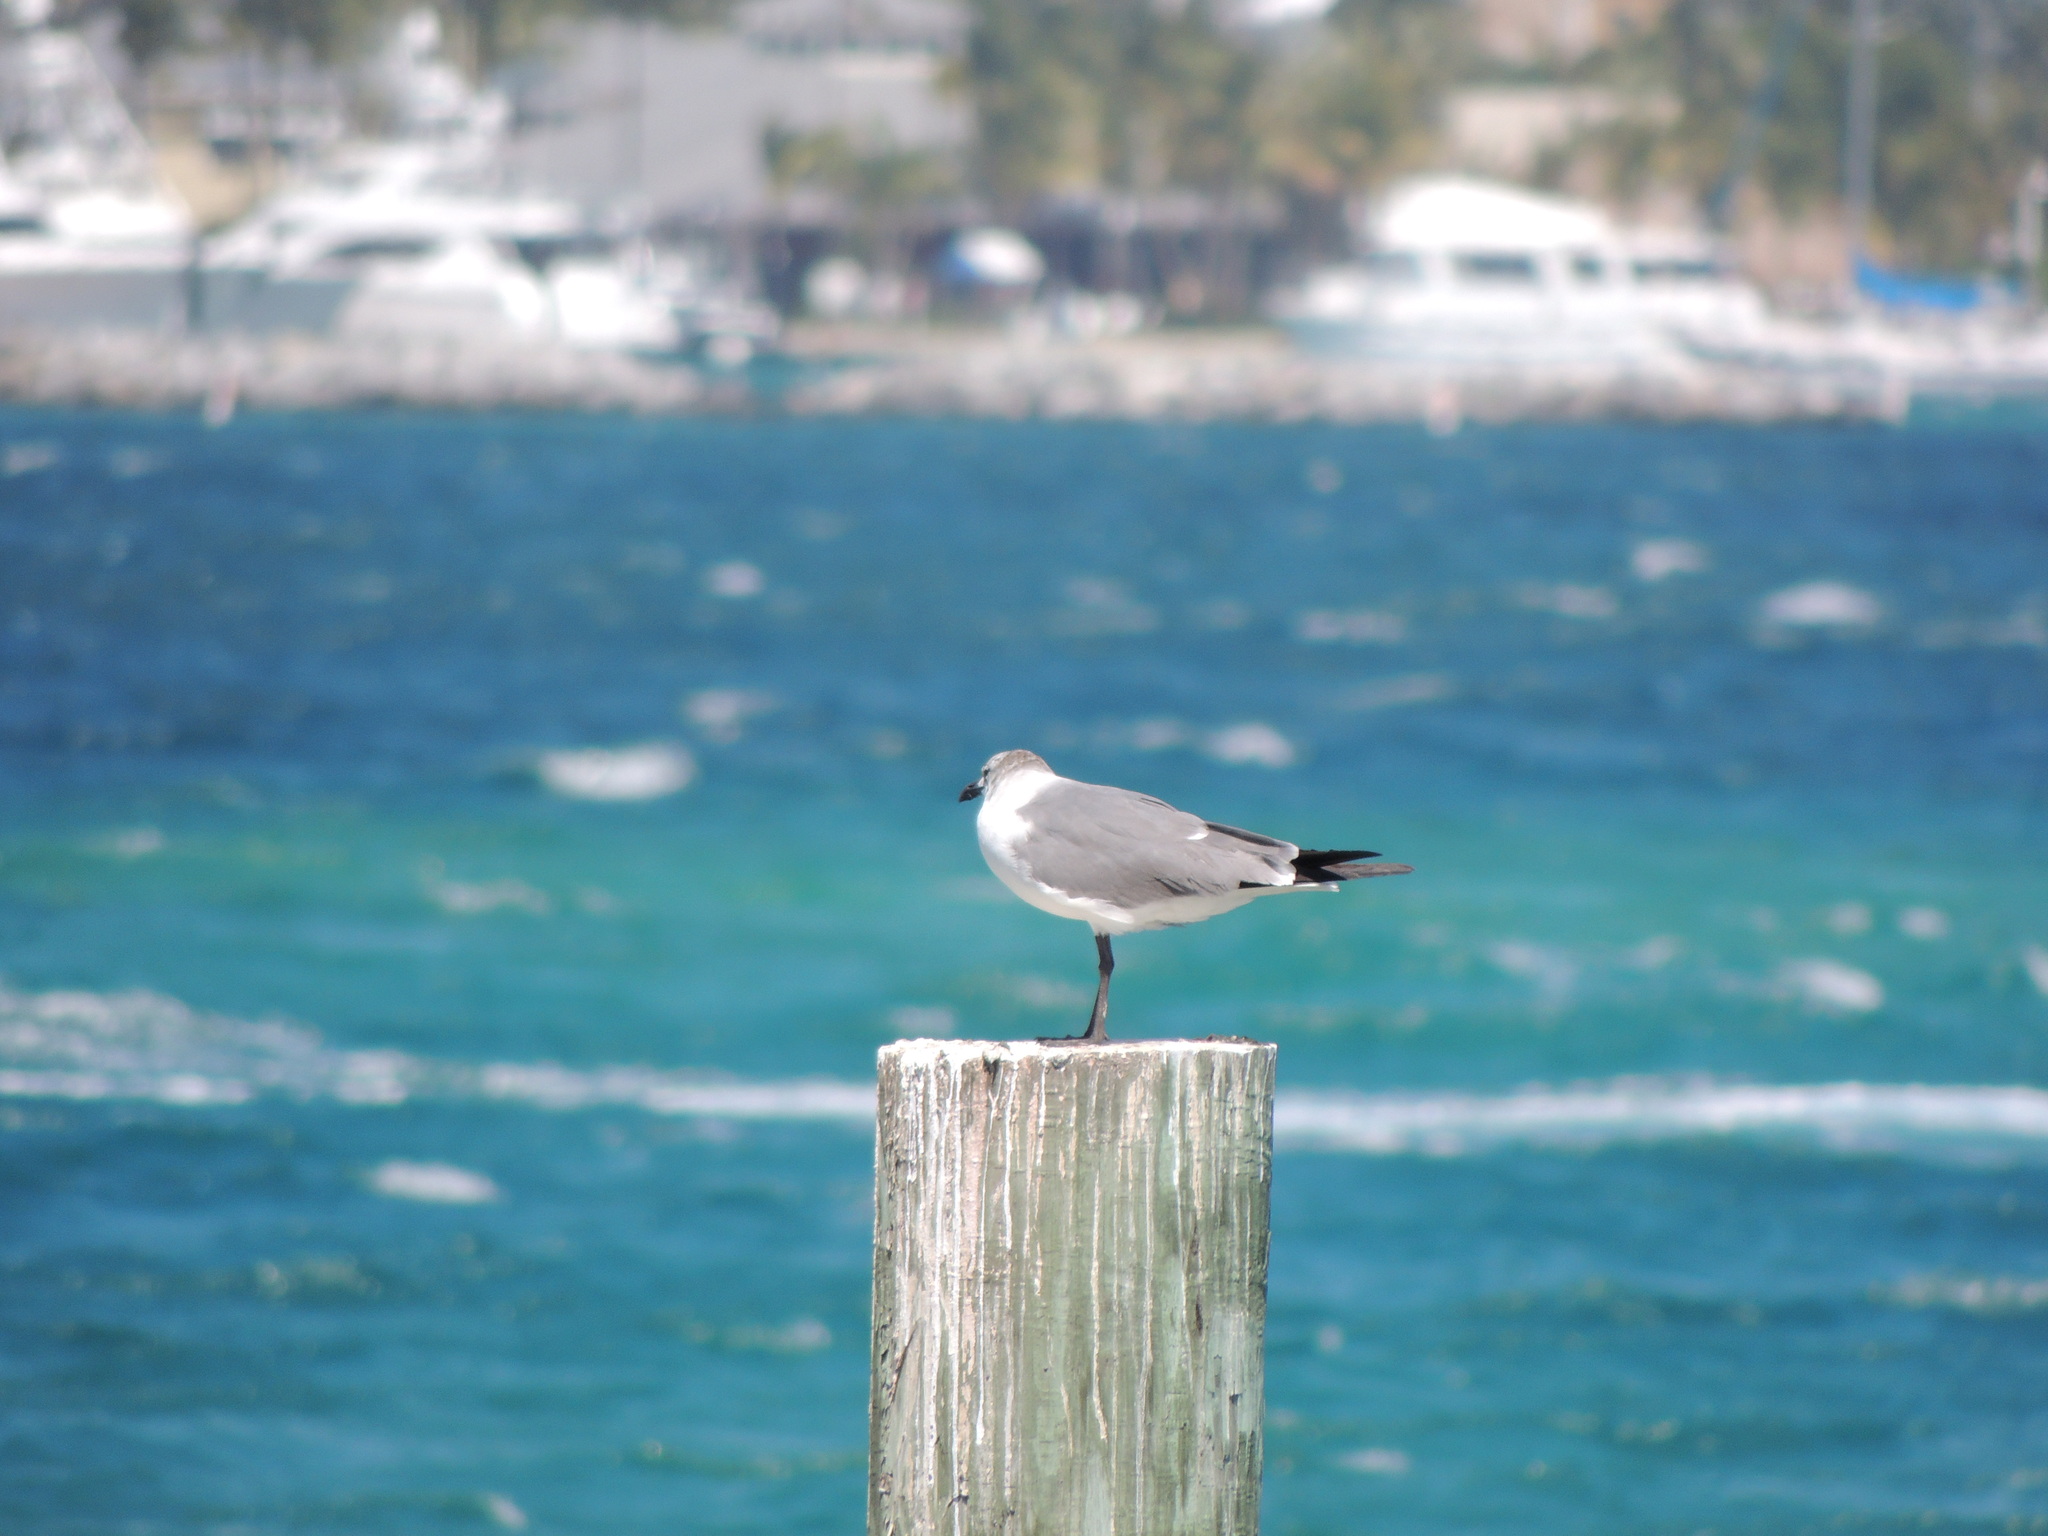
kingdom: Animalia
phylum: Chordata
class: Aves
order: Charadriiformes
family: Laridae
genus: Leucophaeus
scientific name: Leucophaeus atricilla
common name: Laughing gull
